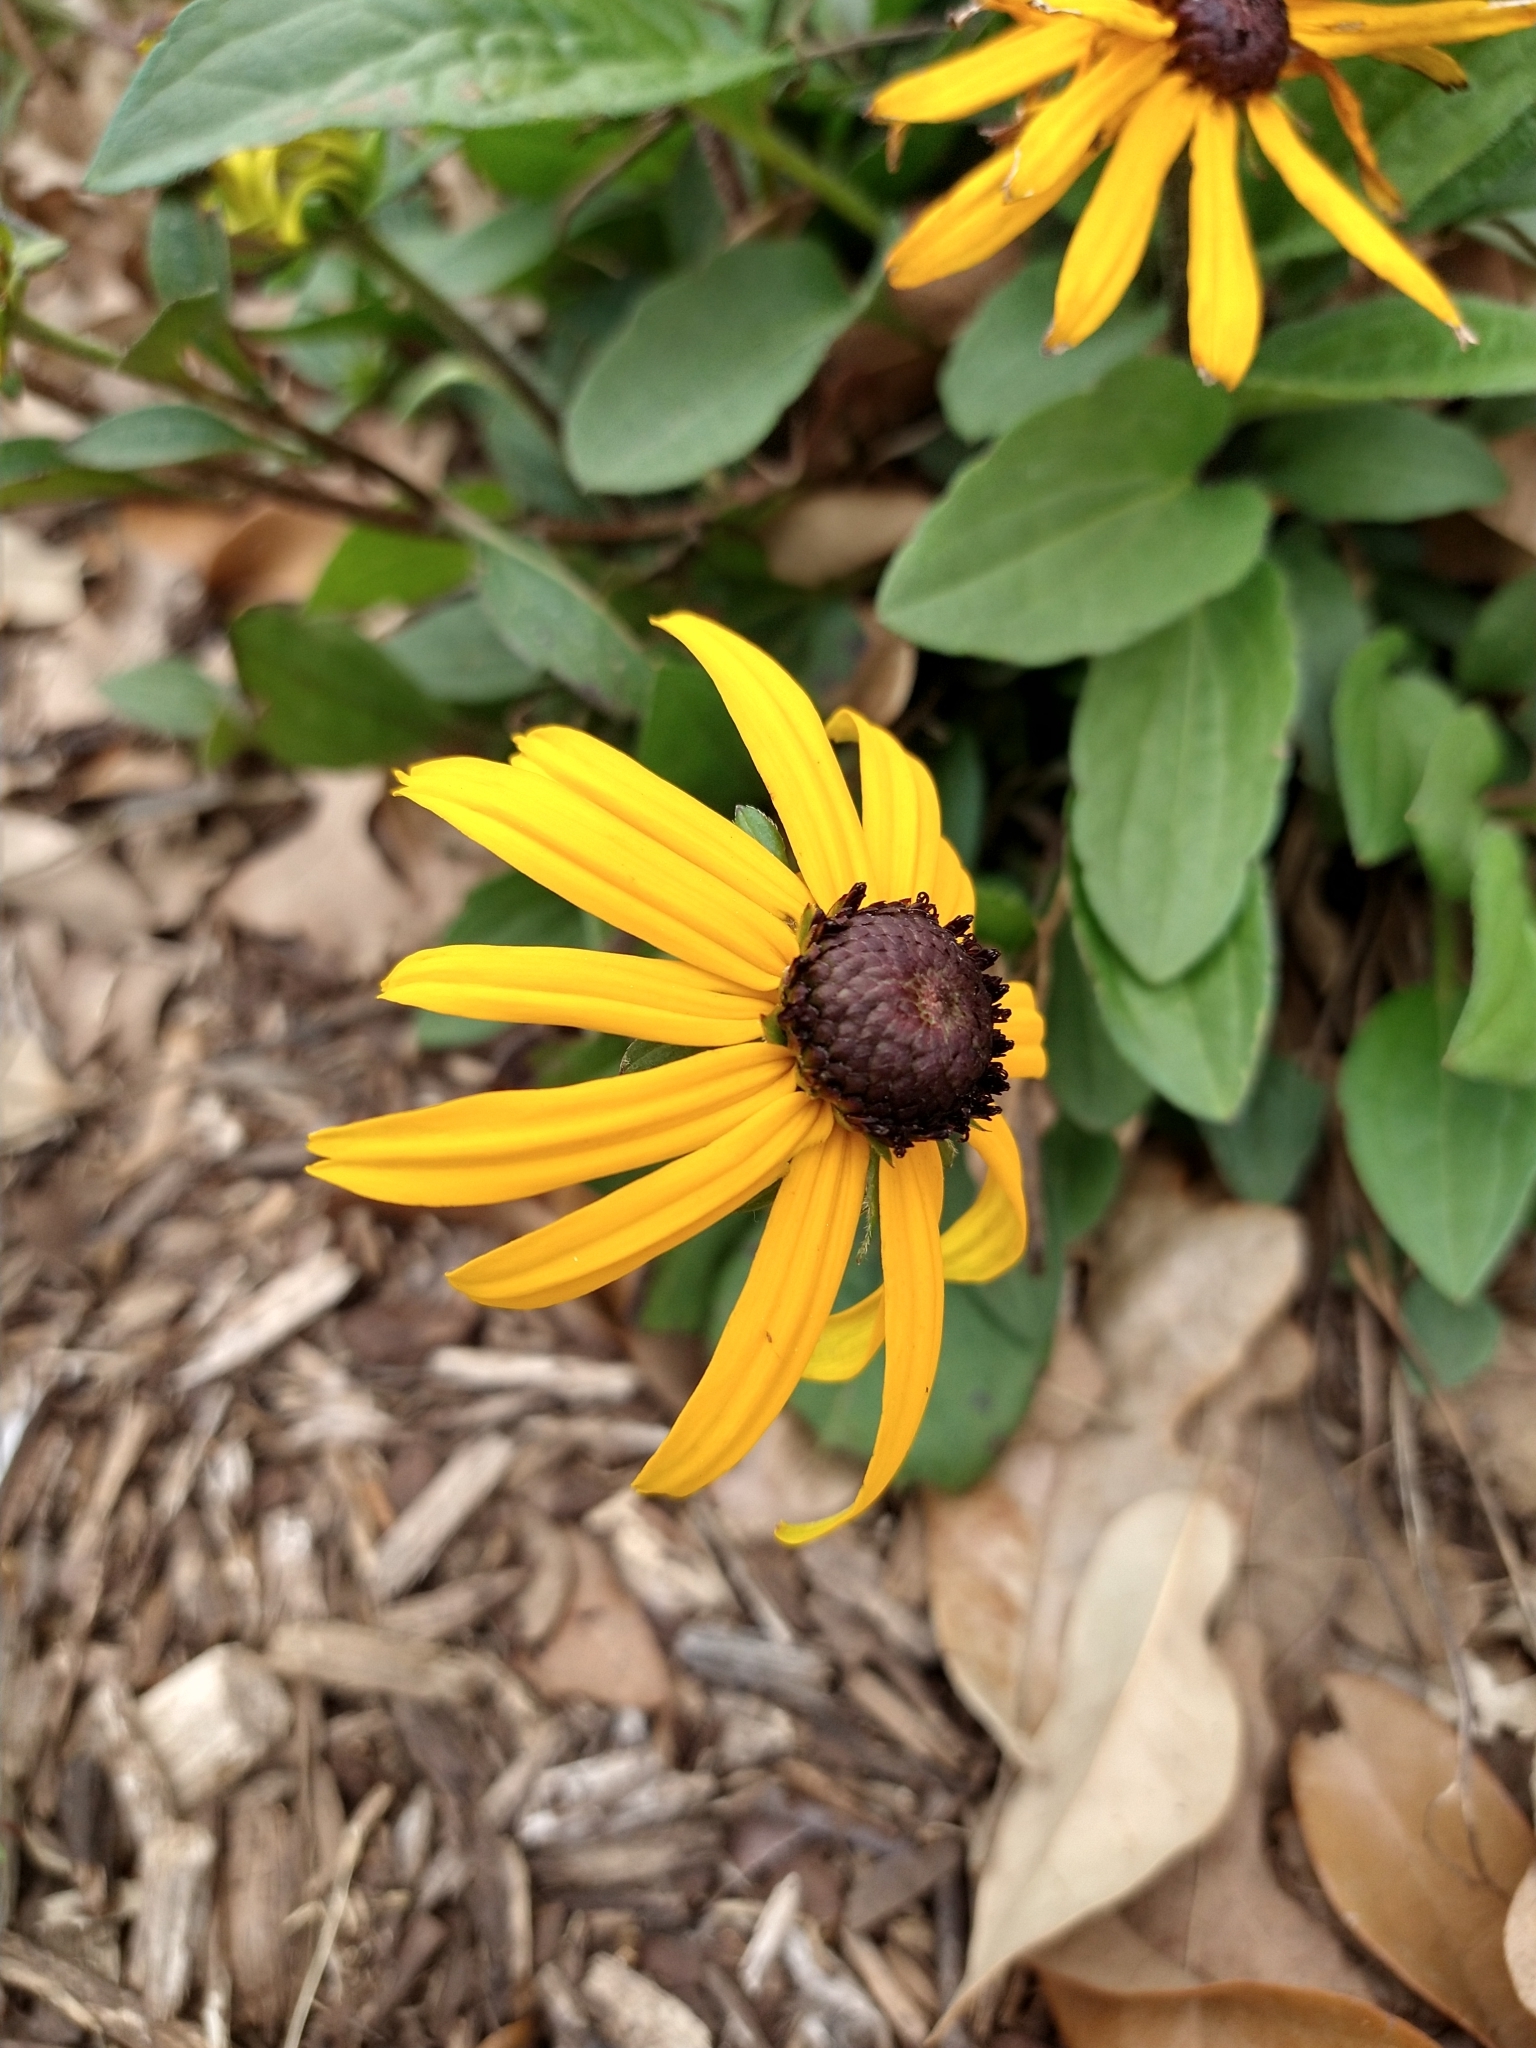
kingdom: Plantae
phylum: Tracheophyta
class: Magnoliopsida
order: Asterales
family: Asteraceae
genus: Rudbeckia
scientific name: Rudbeckia hirta
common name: Black-eyed-susan
